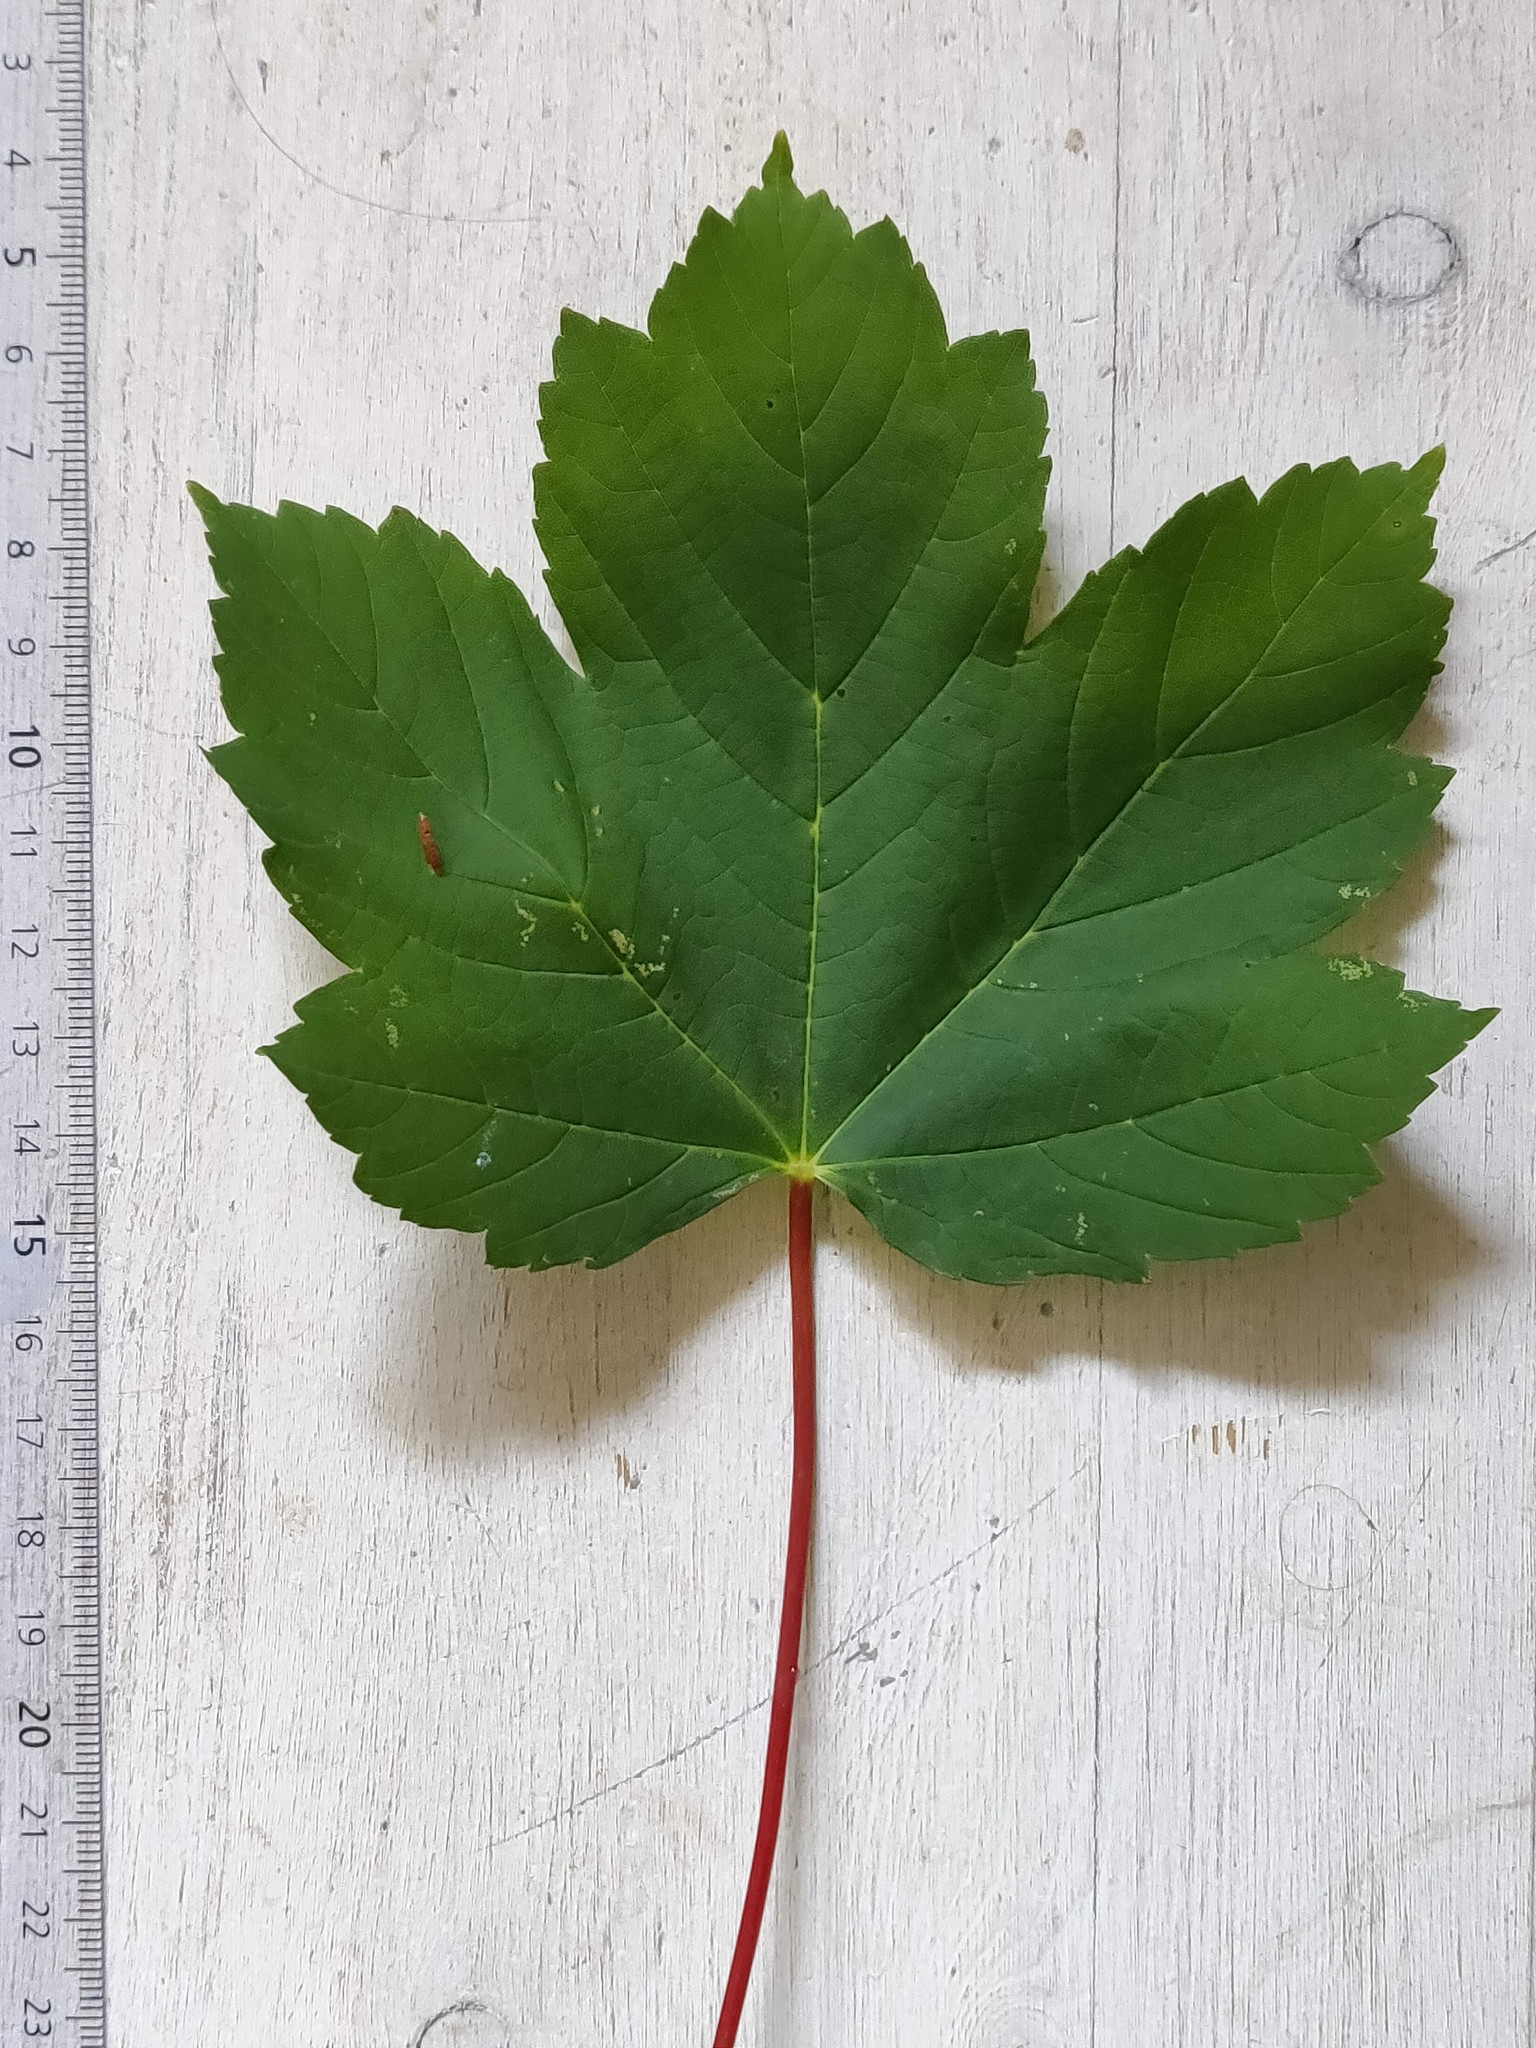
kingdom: Plantae
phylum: Tracheophyta
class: Magnoliopsida
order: Sapindales
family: Sapindaceae
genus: Acer
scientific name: Acer pseudoplatanus
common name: Sycamore
